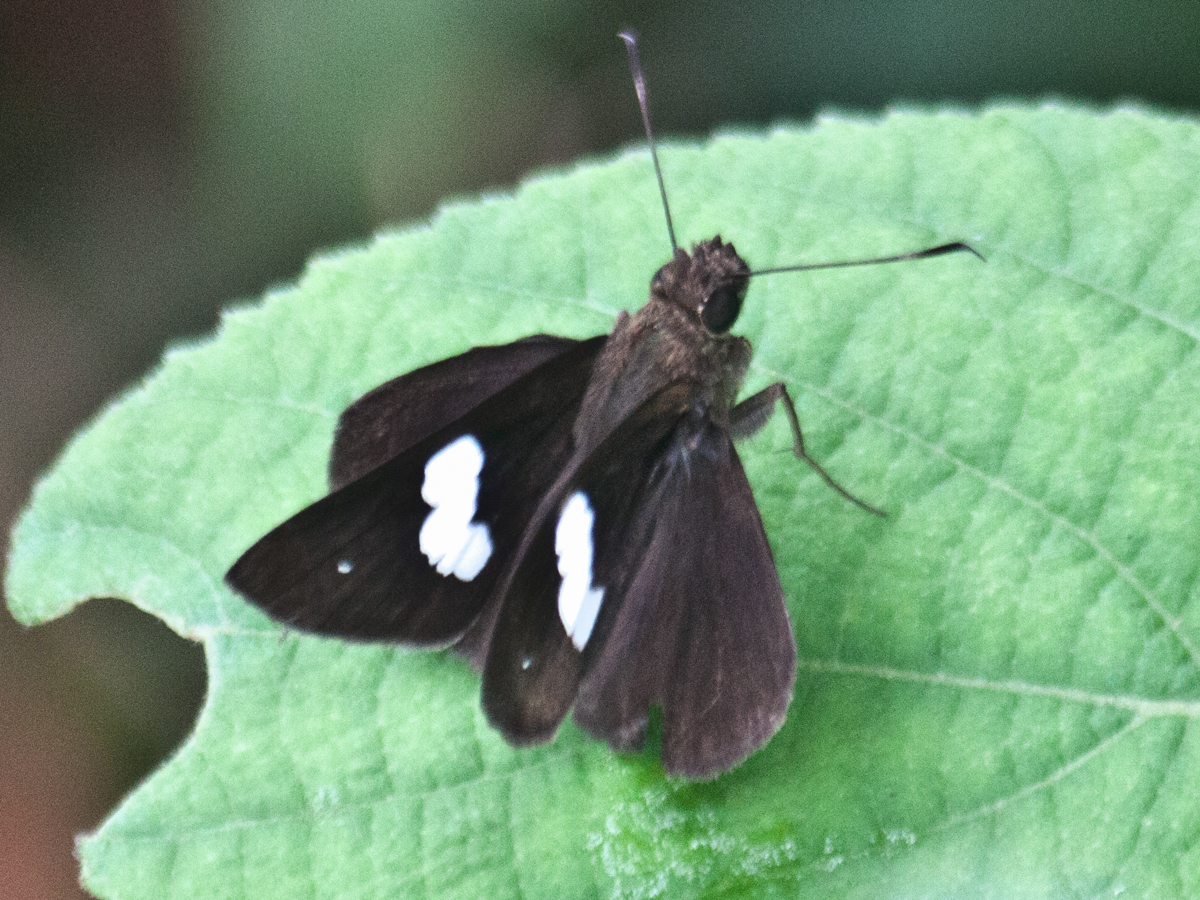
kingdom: Animalia
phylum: Arthropoda
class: Insecta
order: Lepidoptera
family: Hesperiidae
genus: Notocrypta
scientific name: Notocrypta paralysos
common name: Common banded demon
